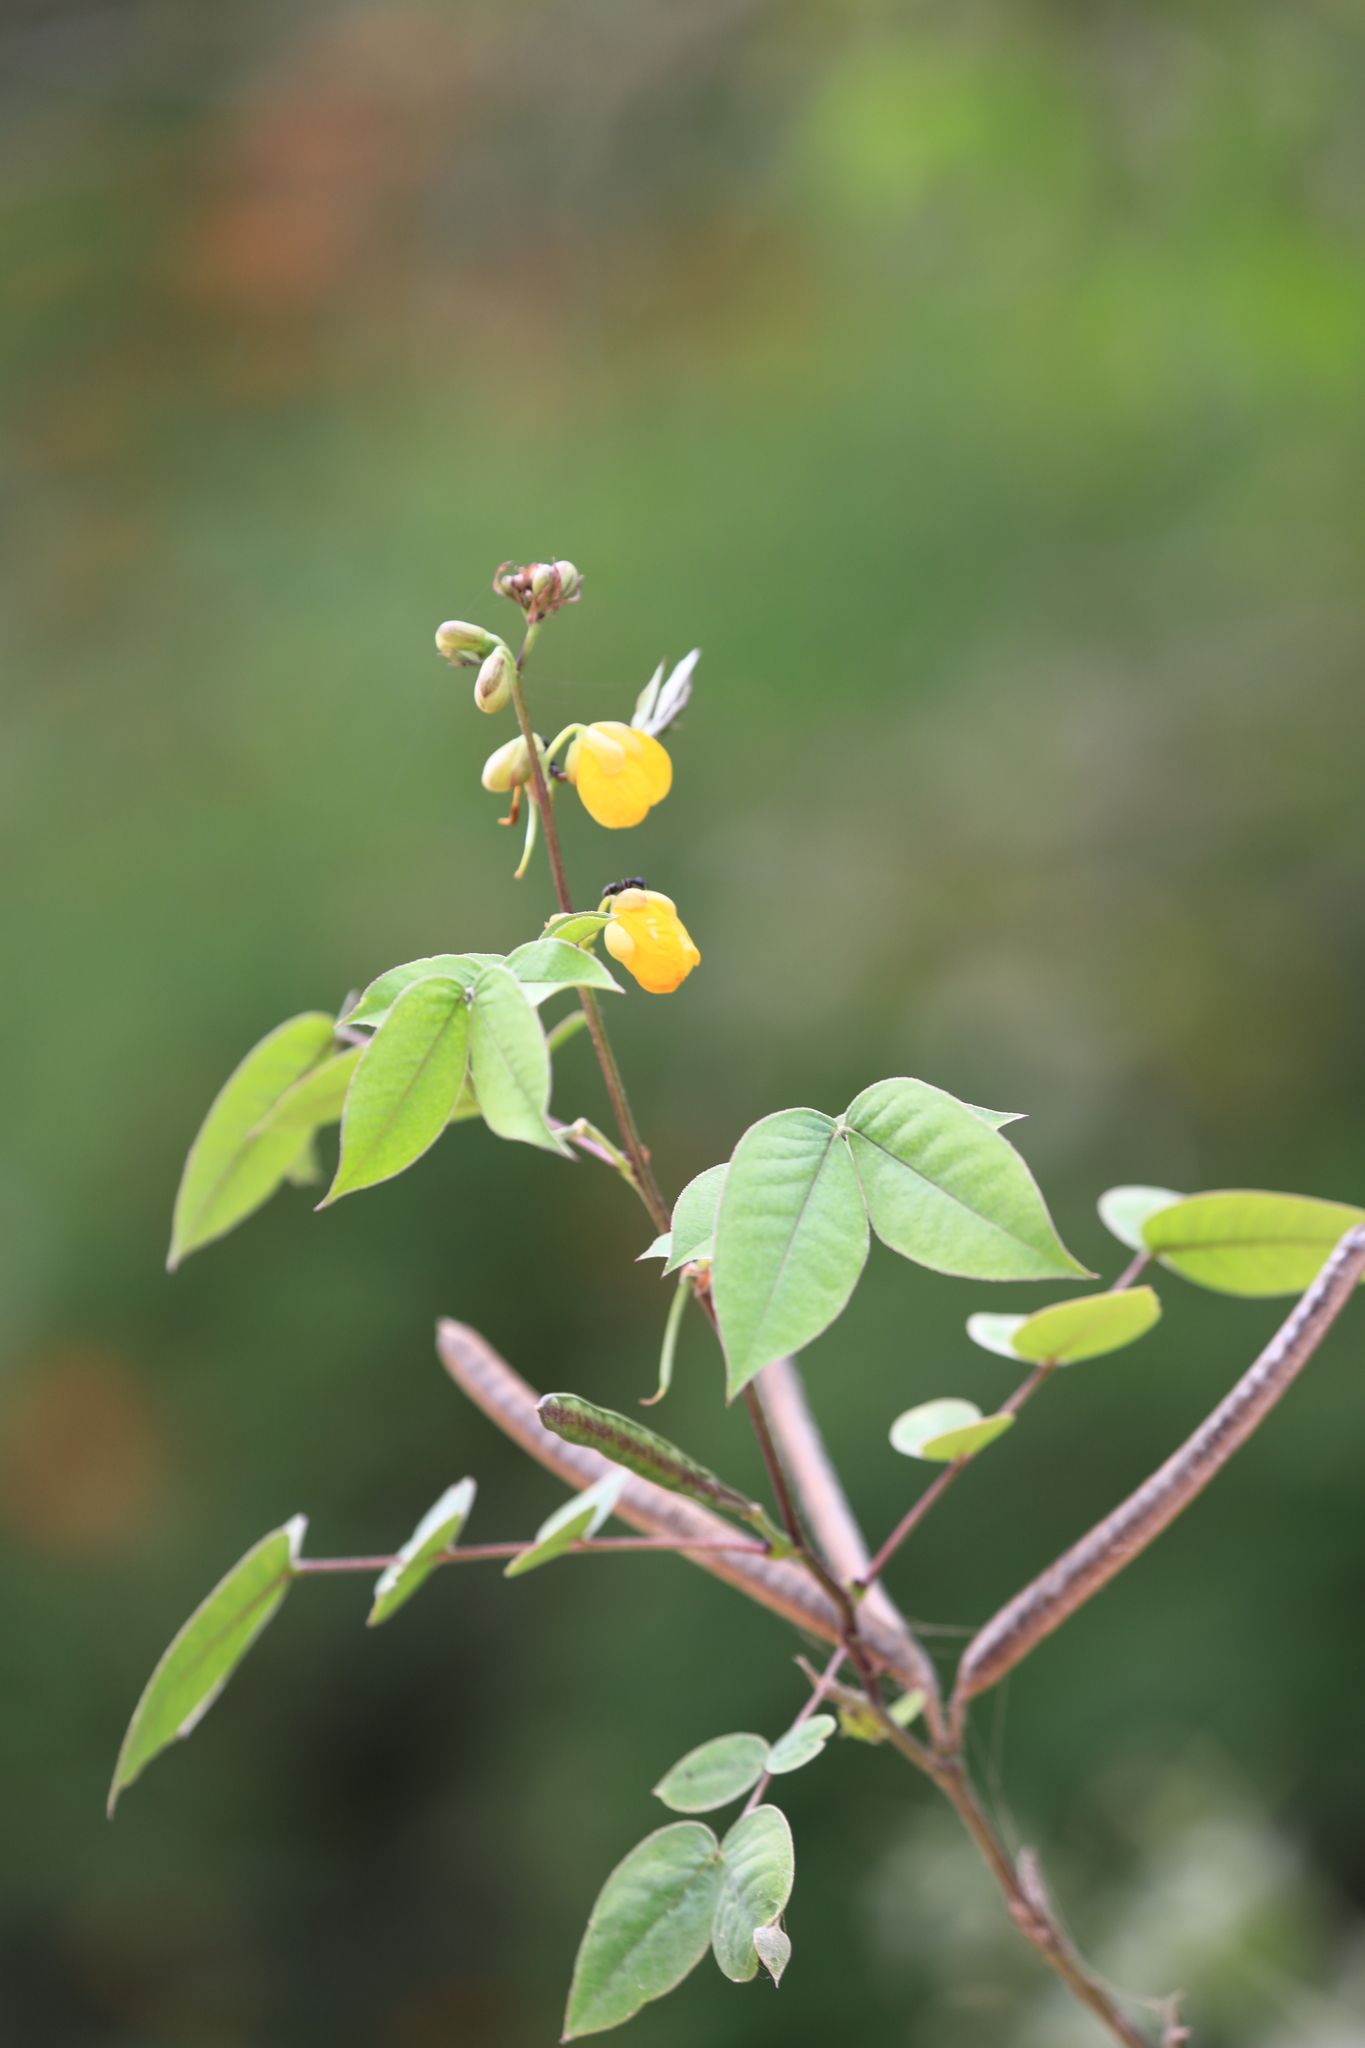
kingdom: Plantae
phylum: Tracheophyta
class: Magnoliopsida
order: Fabales
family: Fabaceae
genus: Senna
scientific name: Senna occidentalis
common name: Septicweed
